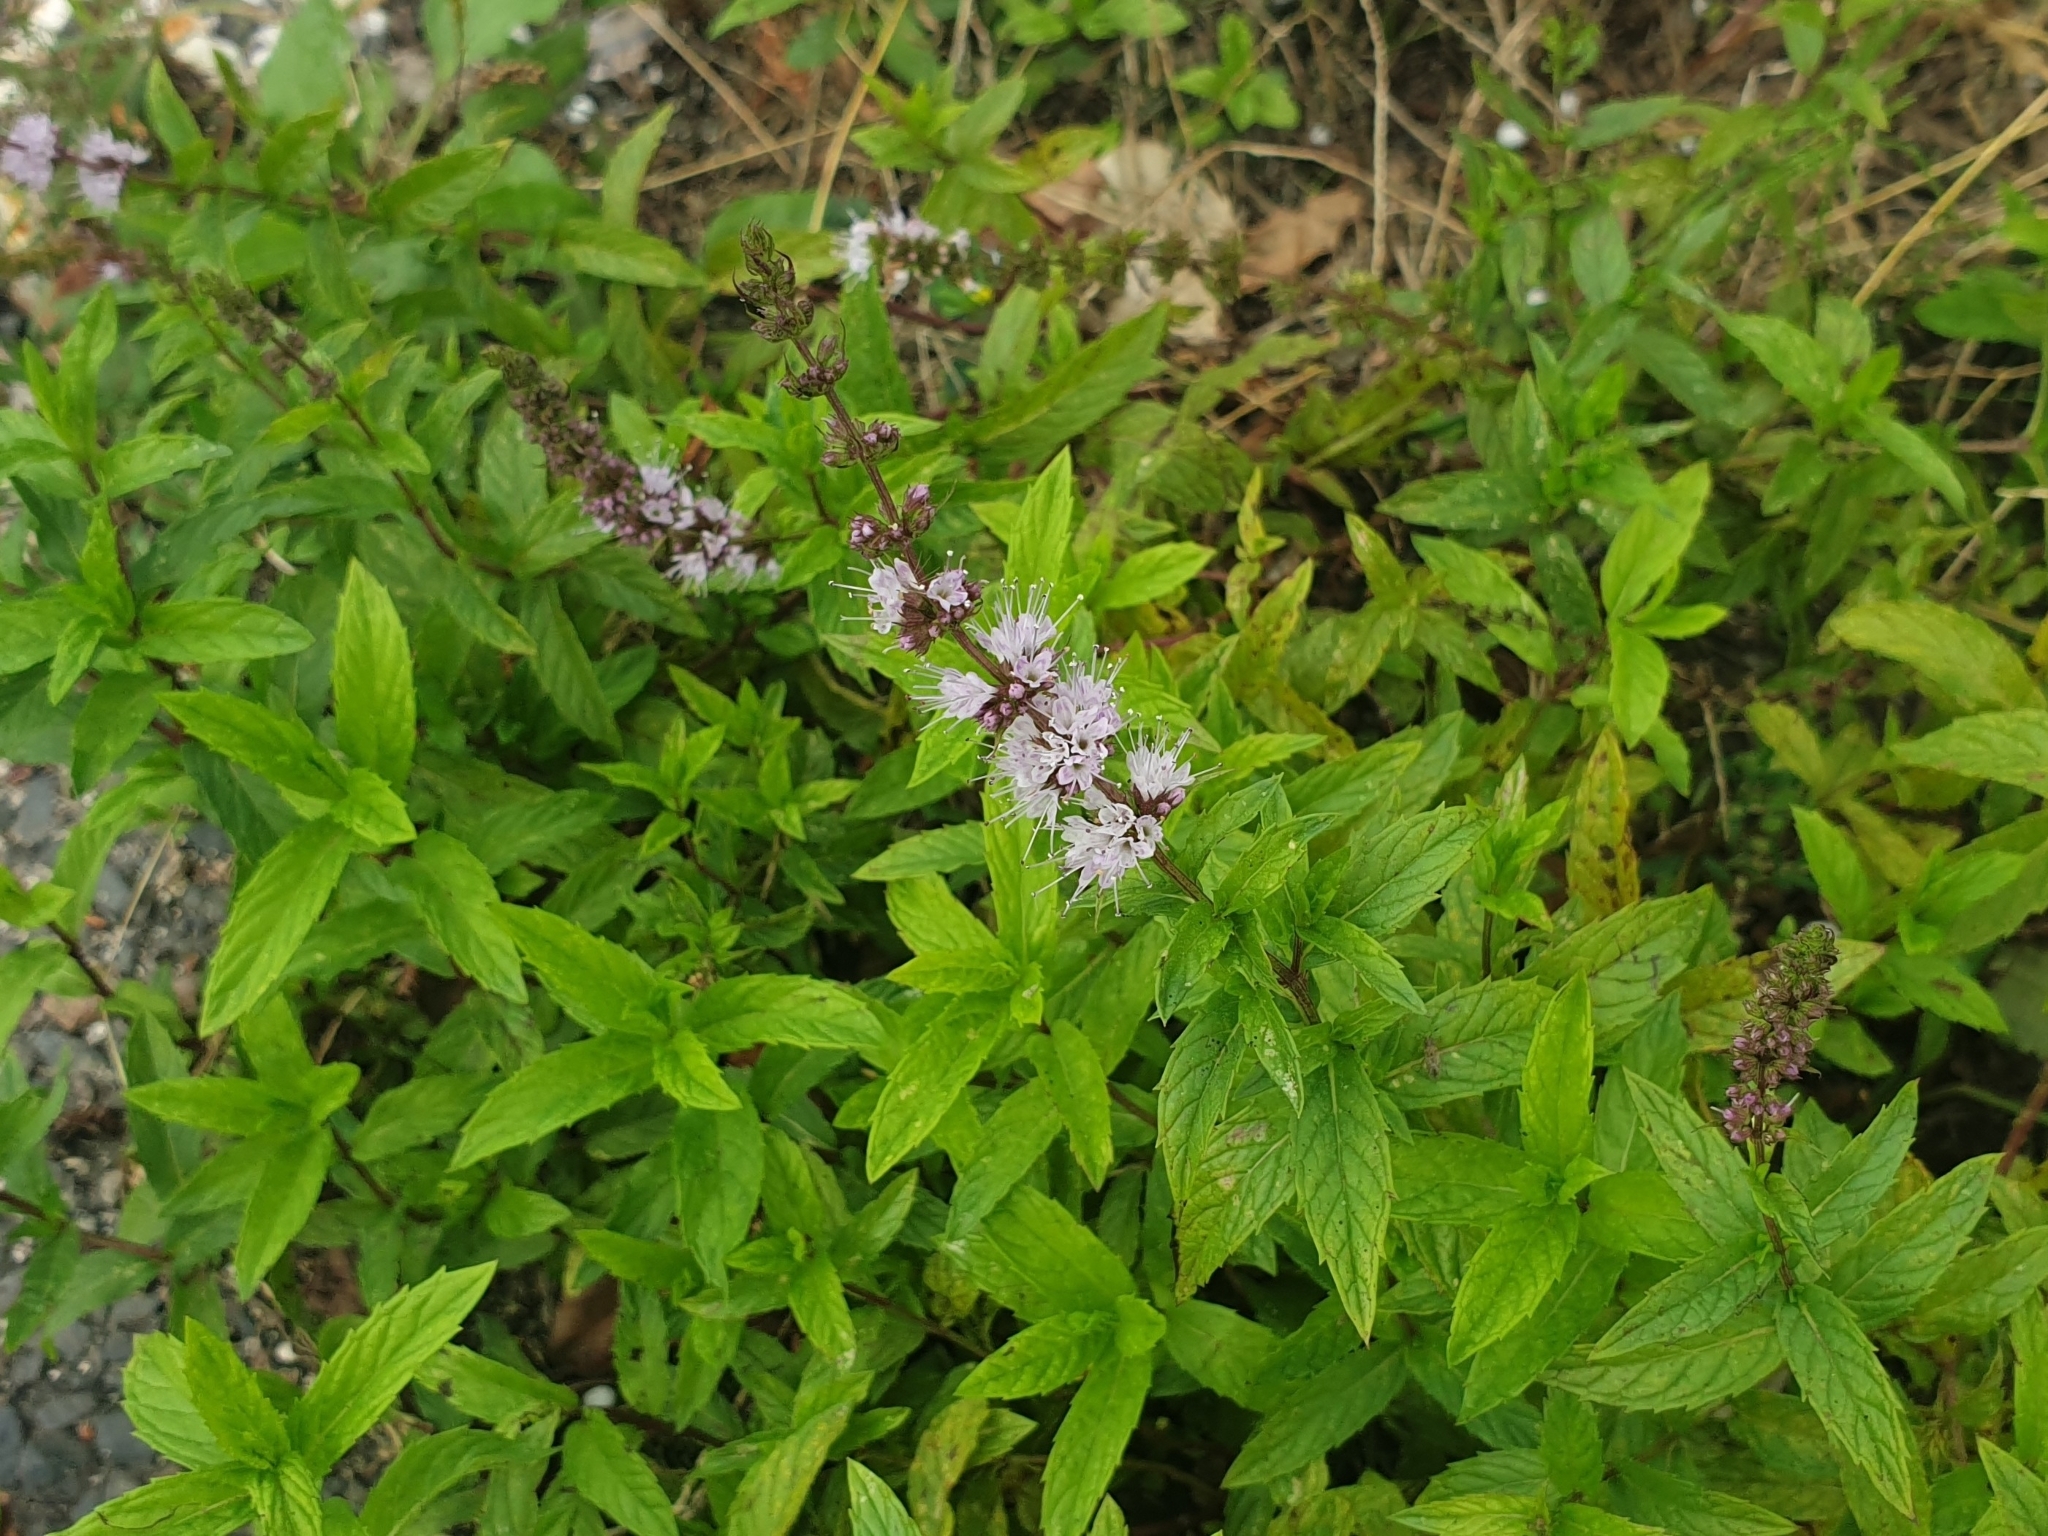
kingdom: Plantae
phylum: Tracheophyta
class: Magnoliopsida
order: Lamiales
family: Lamiaceae
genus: Mentha
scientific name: Mentha spicata
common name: Spearmint
